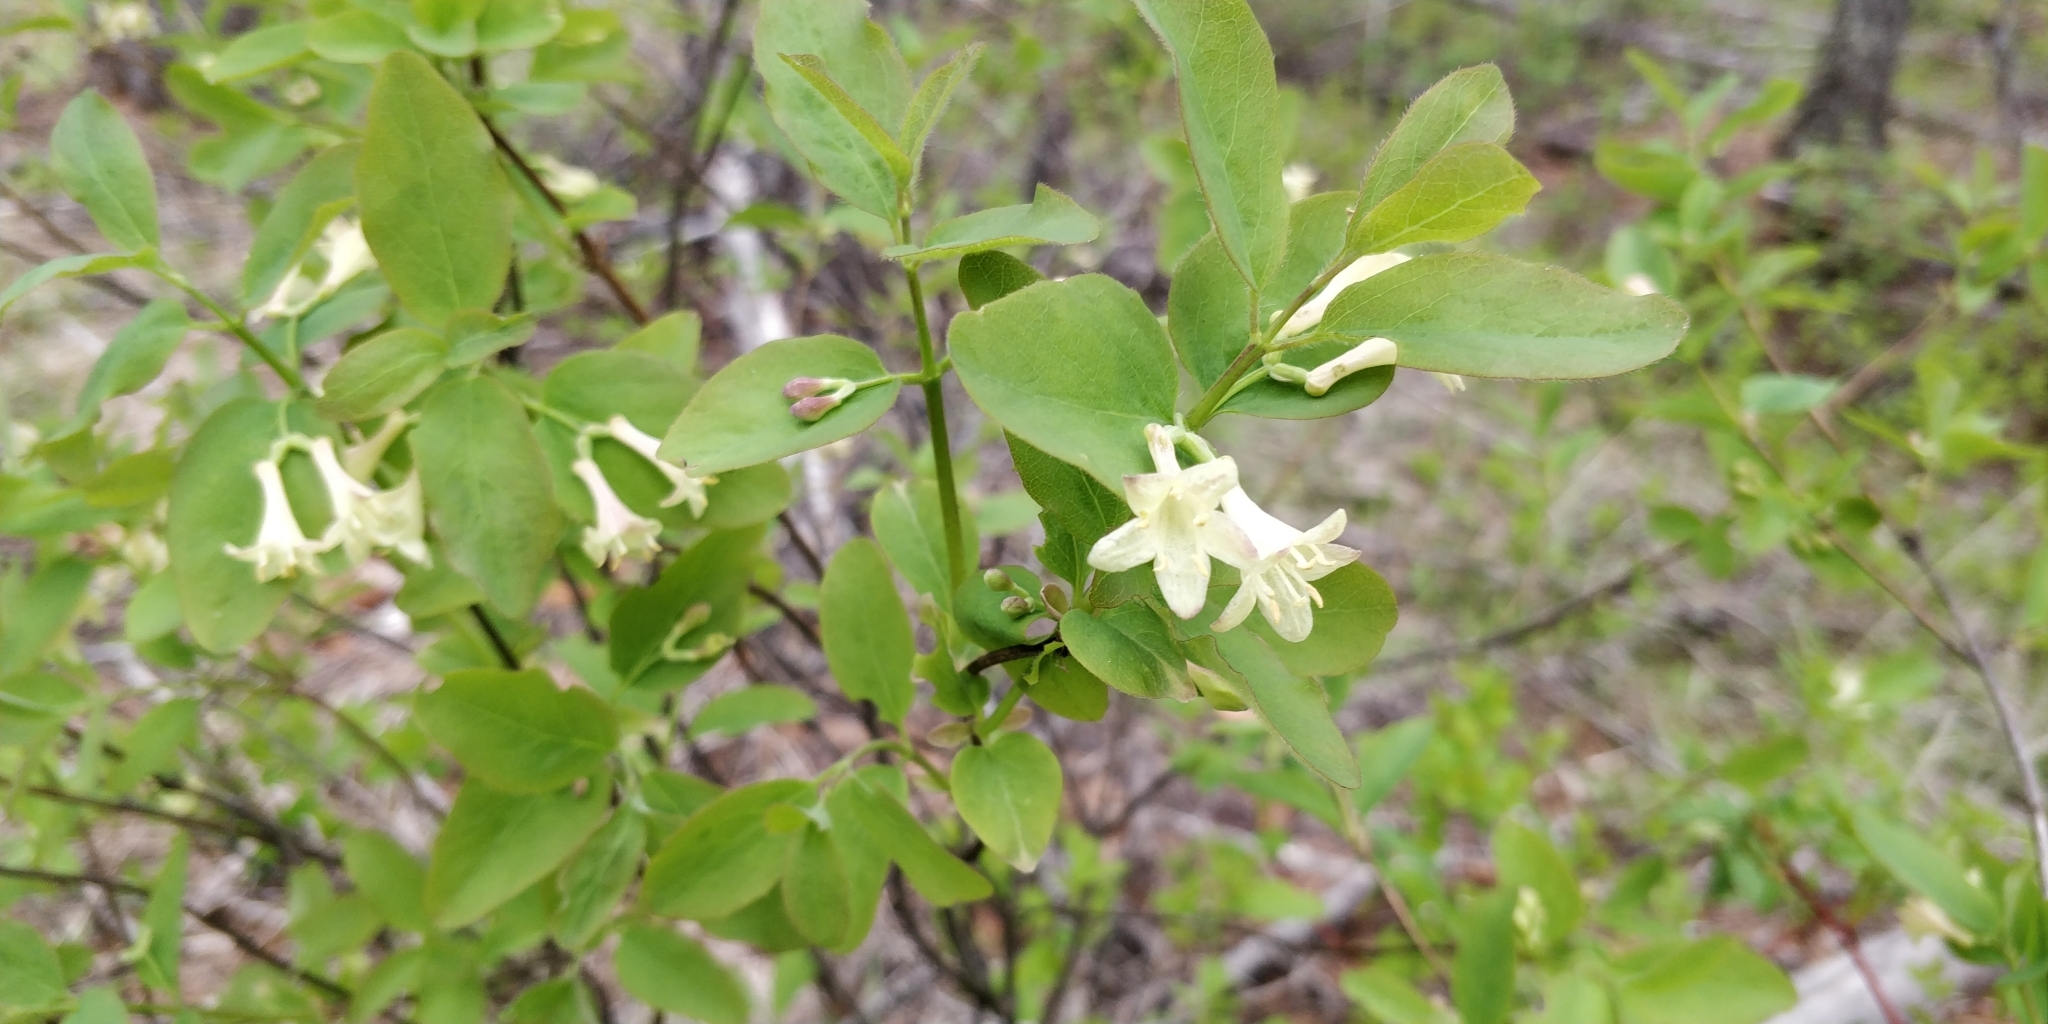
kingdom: Plantae
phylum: Tracheophyta
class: Magnoliopsida
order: Dipsacales
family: Caprifoliaceae
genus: Lonicera
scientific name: Lonicera utahensis
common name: Utah honeysuckle
